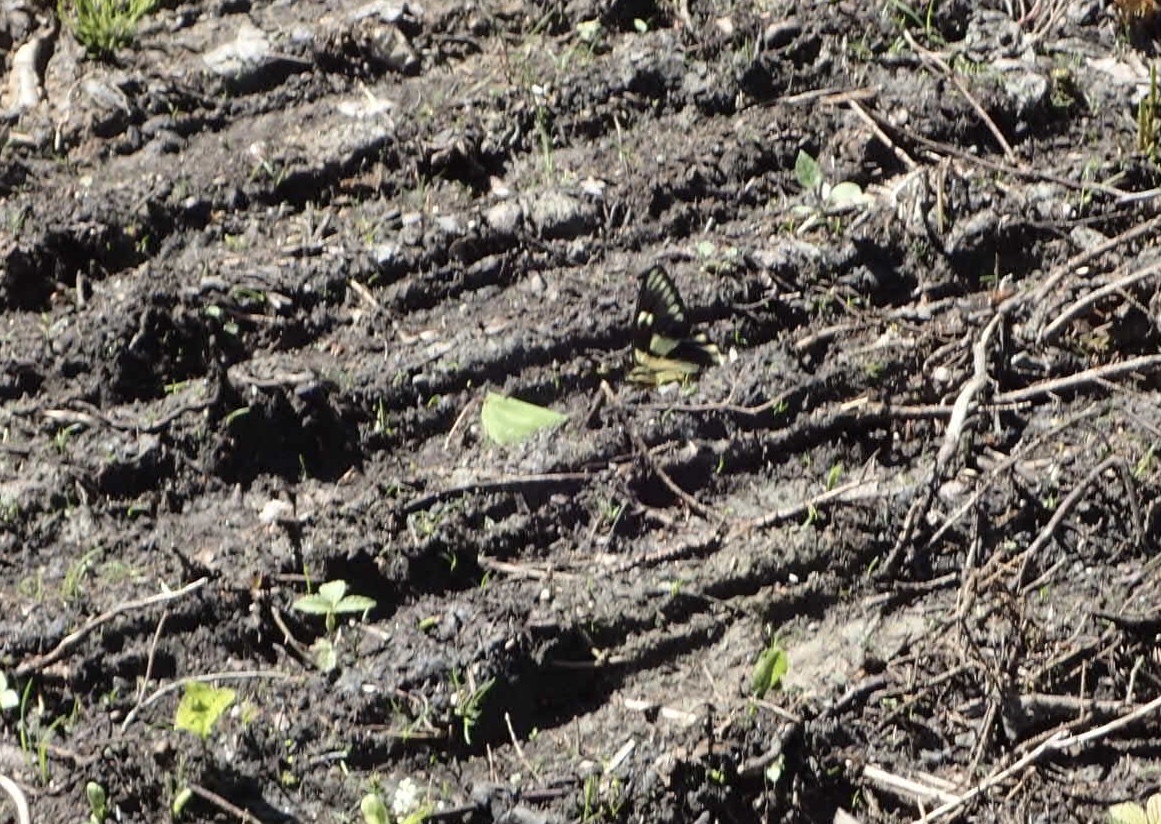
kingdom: Animalia
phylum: Arthropoda
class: Insecta
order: Lepidoptera
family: Papilionidae
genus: Papilio
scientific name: Papilio canadensis
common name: Canadian tiger swallowtail
